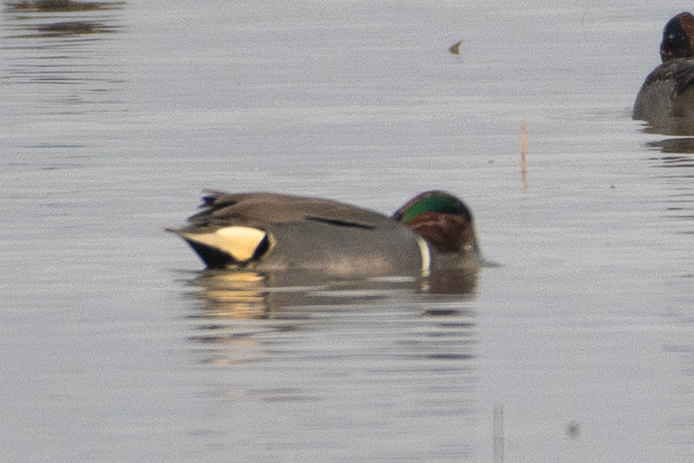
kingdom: Animalia
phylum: Chordata
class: Aves
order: Anseriformes
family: Anatidae
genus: Anas
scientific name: Anas crecca
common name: Eurasian teal
